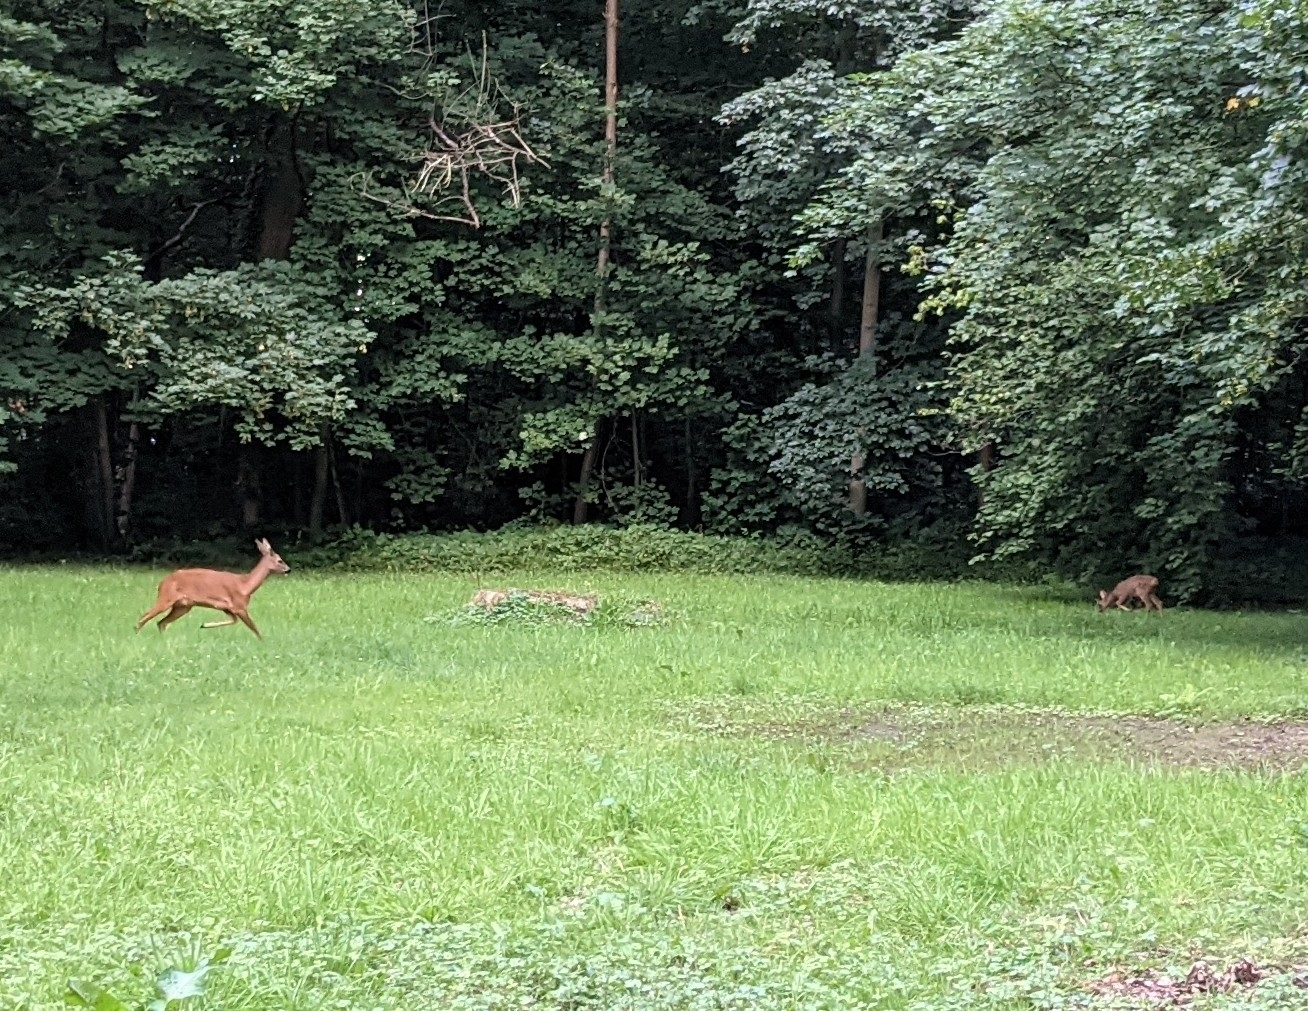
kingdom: Animalia
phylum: Chordata
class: Mammalia
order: Artiodactyla
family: Cervidae
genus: Capreolus
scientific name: Capreolus capreolus
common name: Western roe deer
